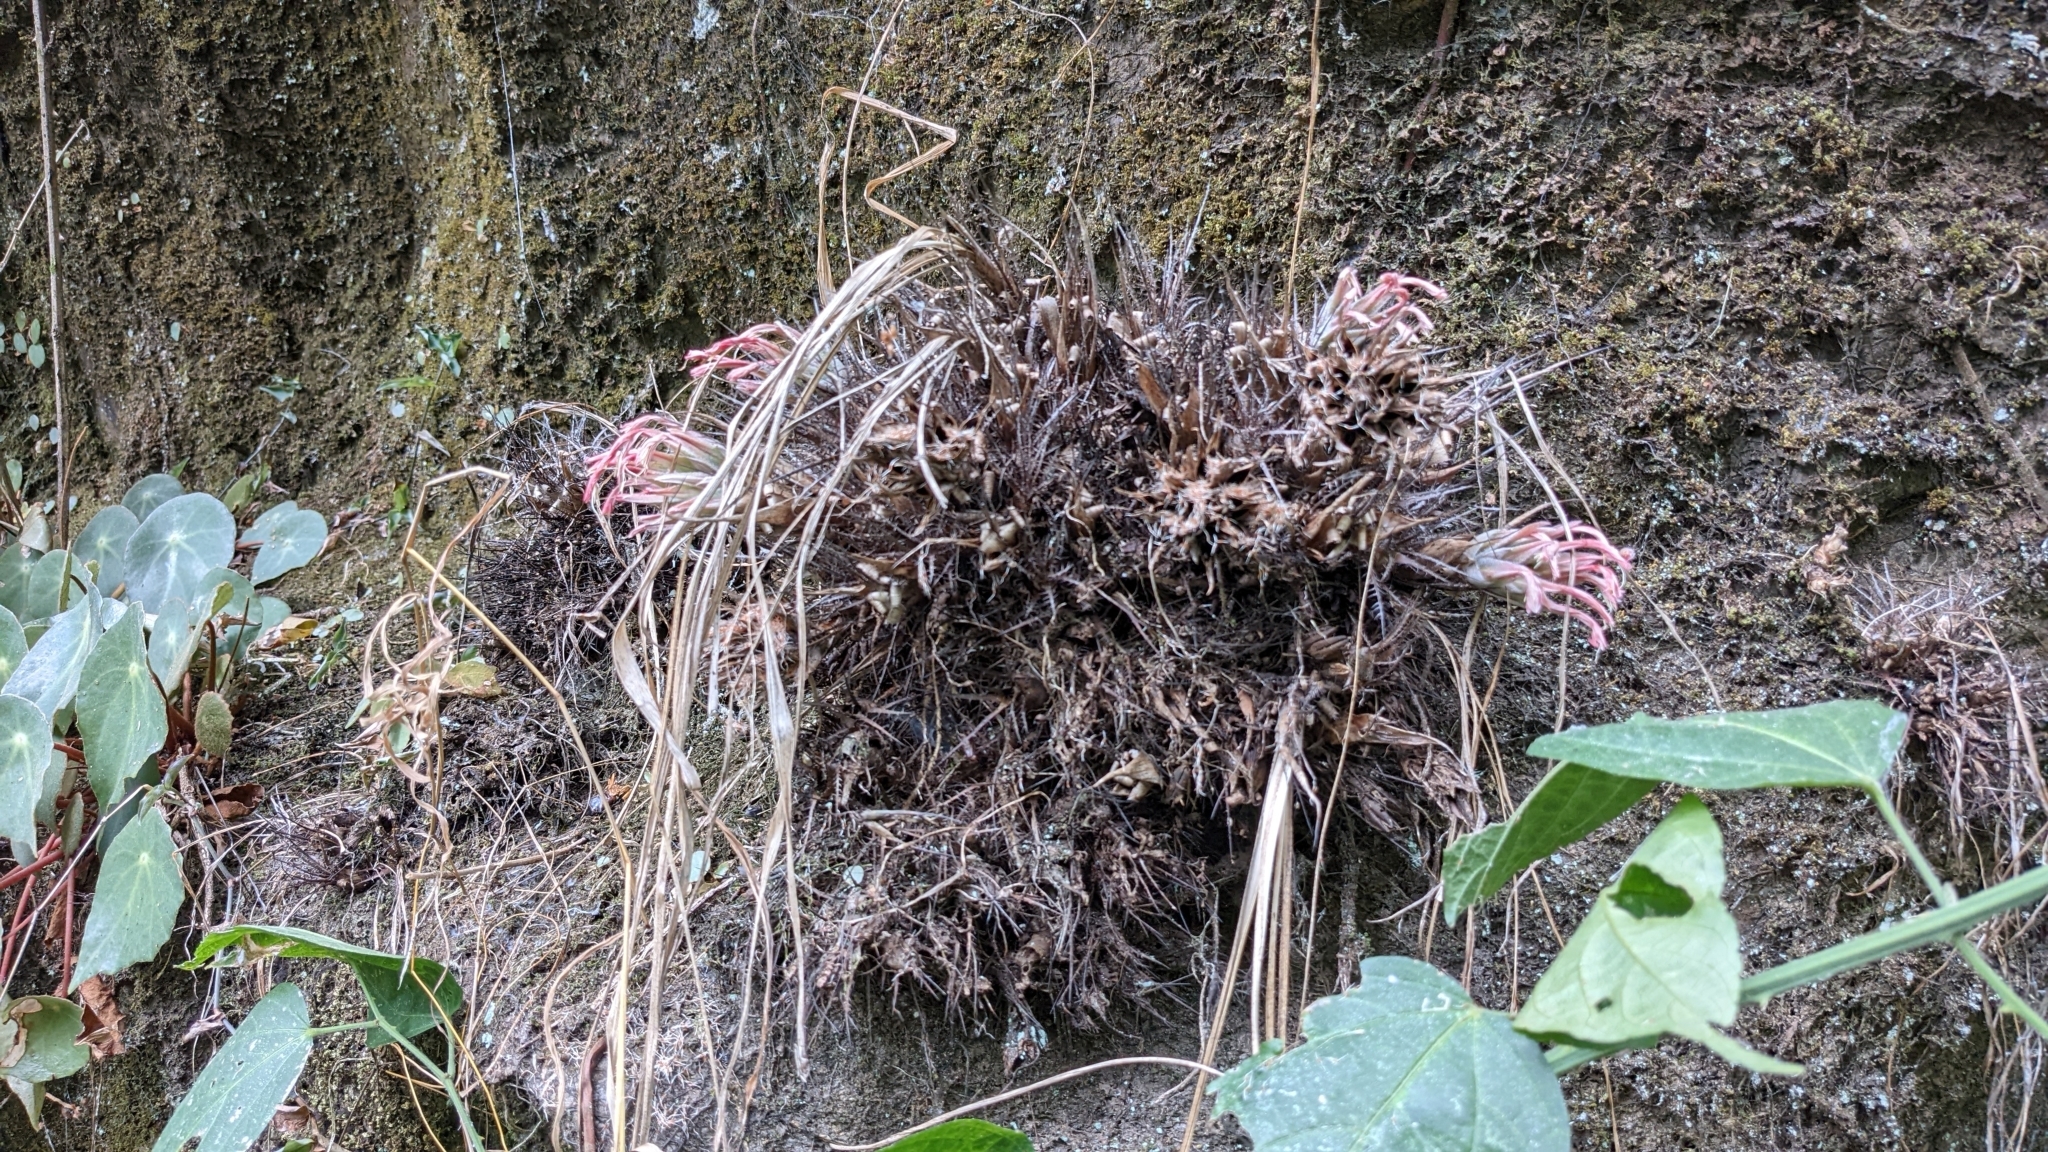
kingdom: Plantae
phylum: Tracheophyta
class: Liliopsida
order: Poales
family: Bromeliaceae
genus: Pitcairnia
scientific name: Pitcairnia heterophylla
